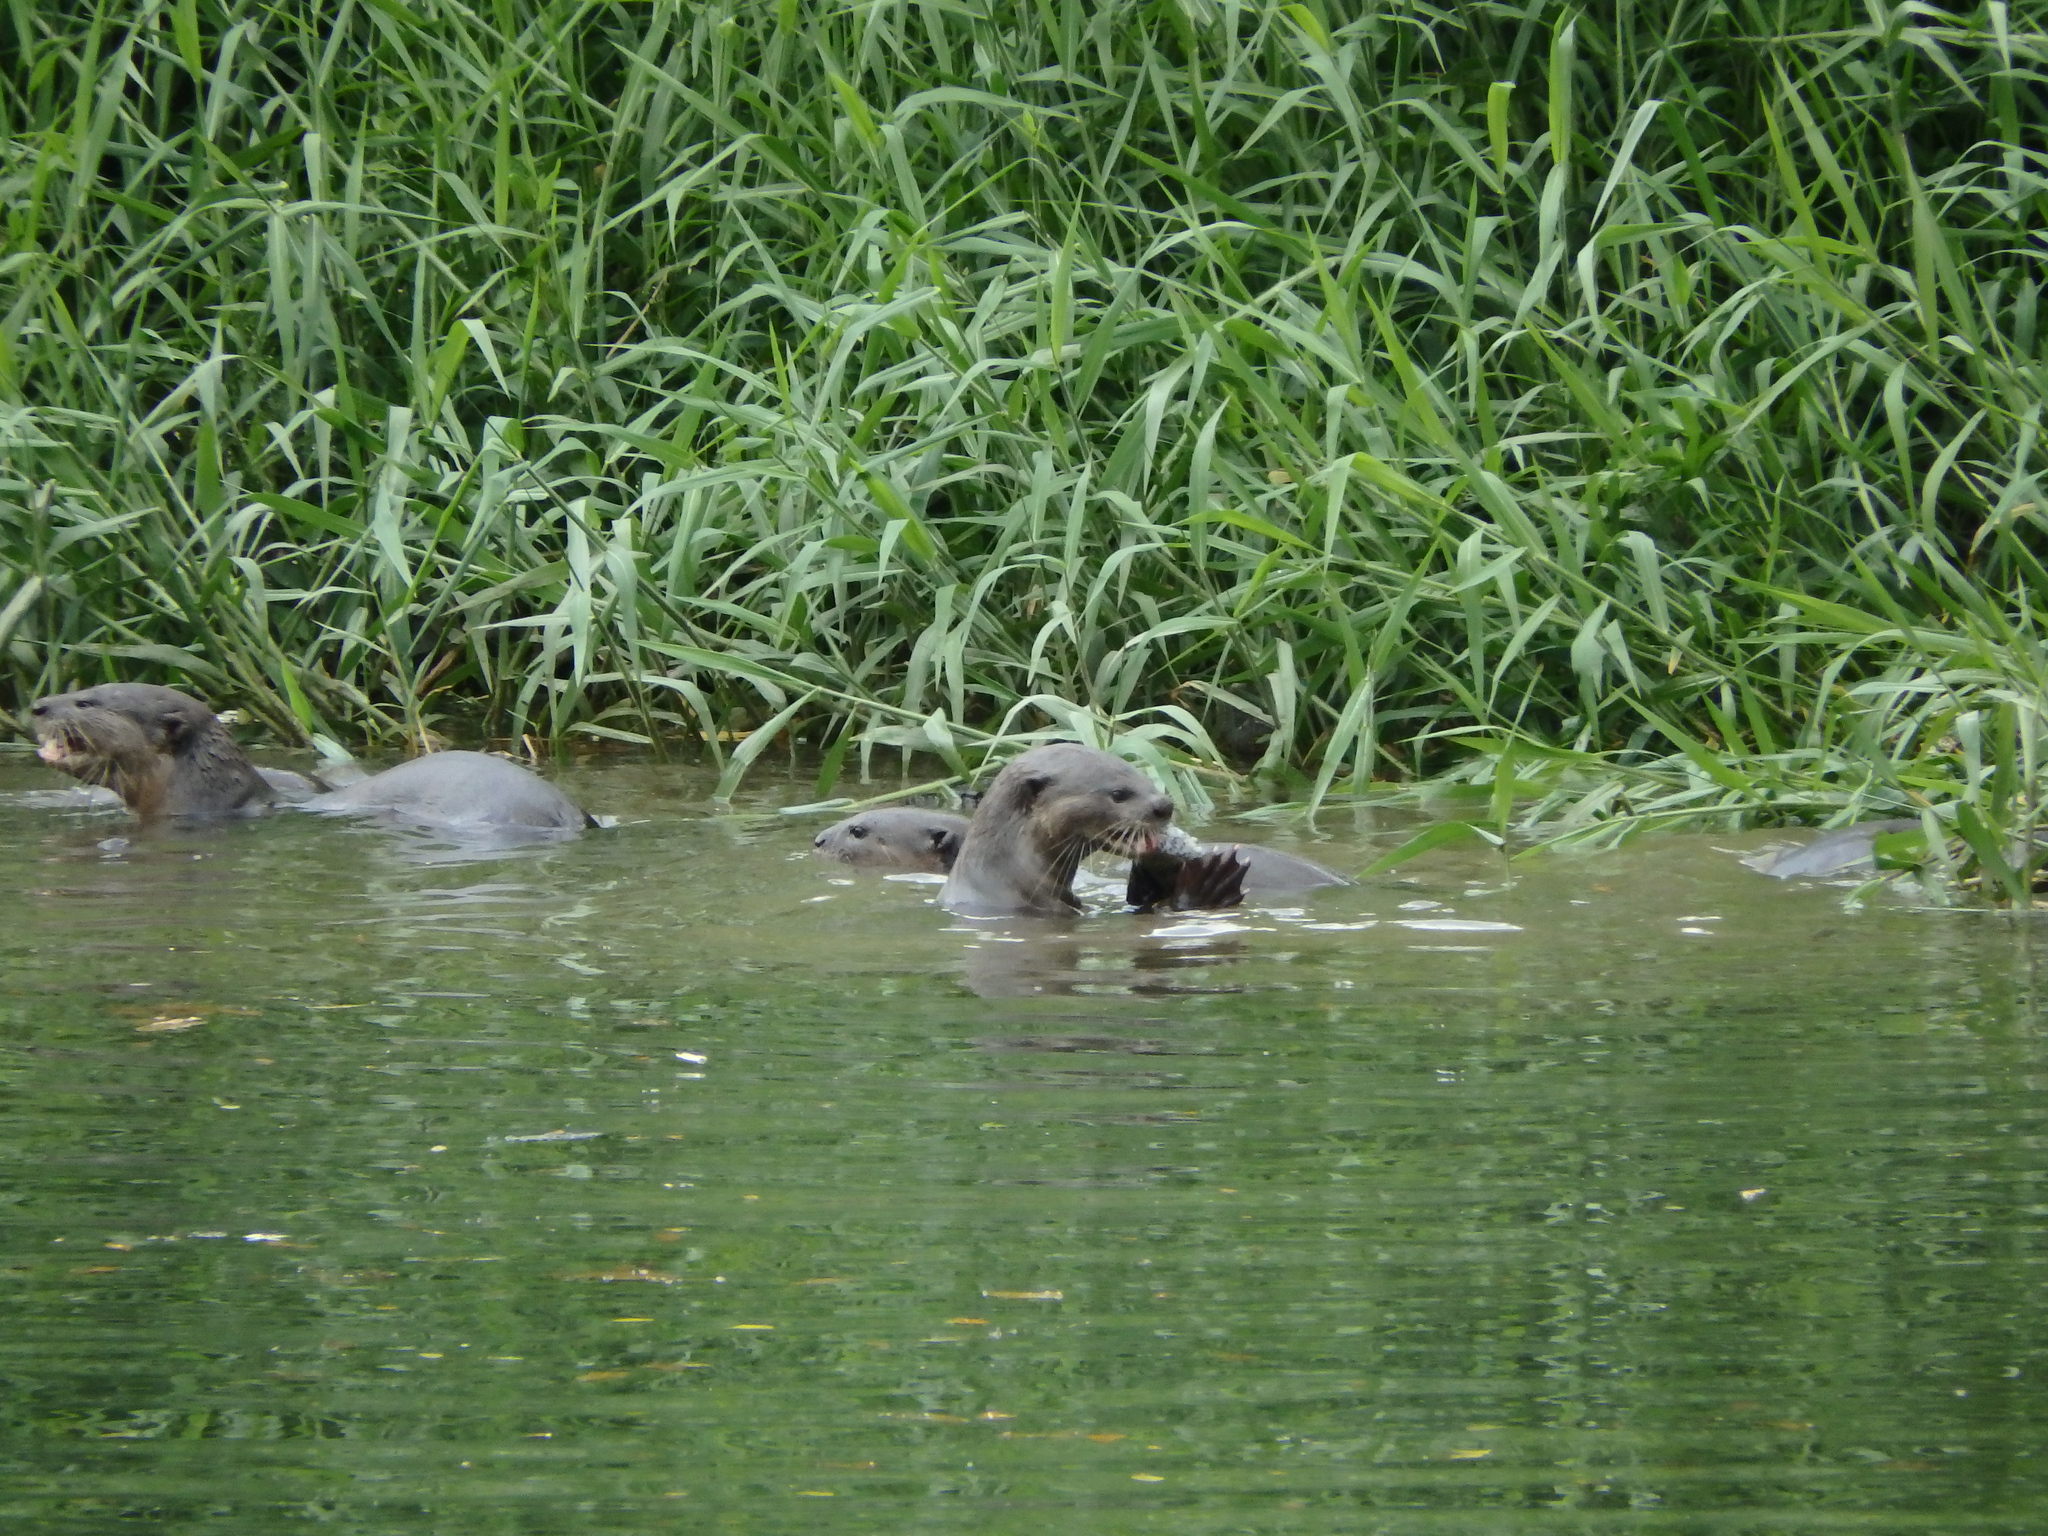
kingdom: Animalia
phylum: Chordata
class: Mammalia
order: Carnivora
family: Mustelidae
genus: Lutrogale
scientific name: Lutrogale perspicillata
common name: Smooth-coated otter
